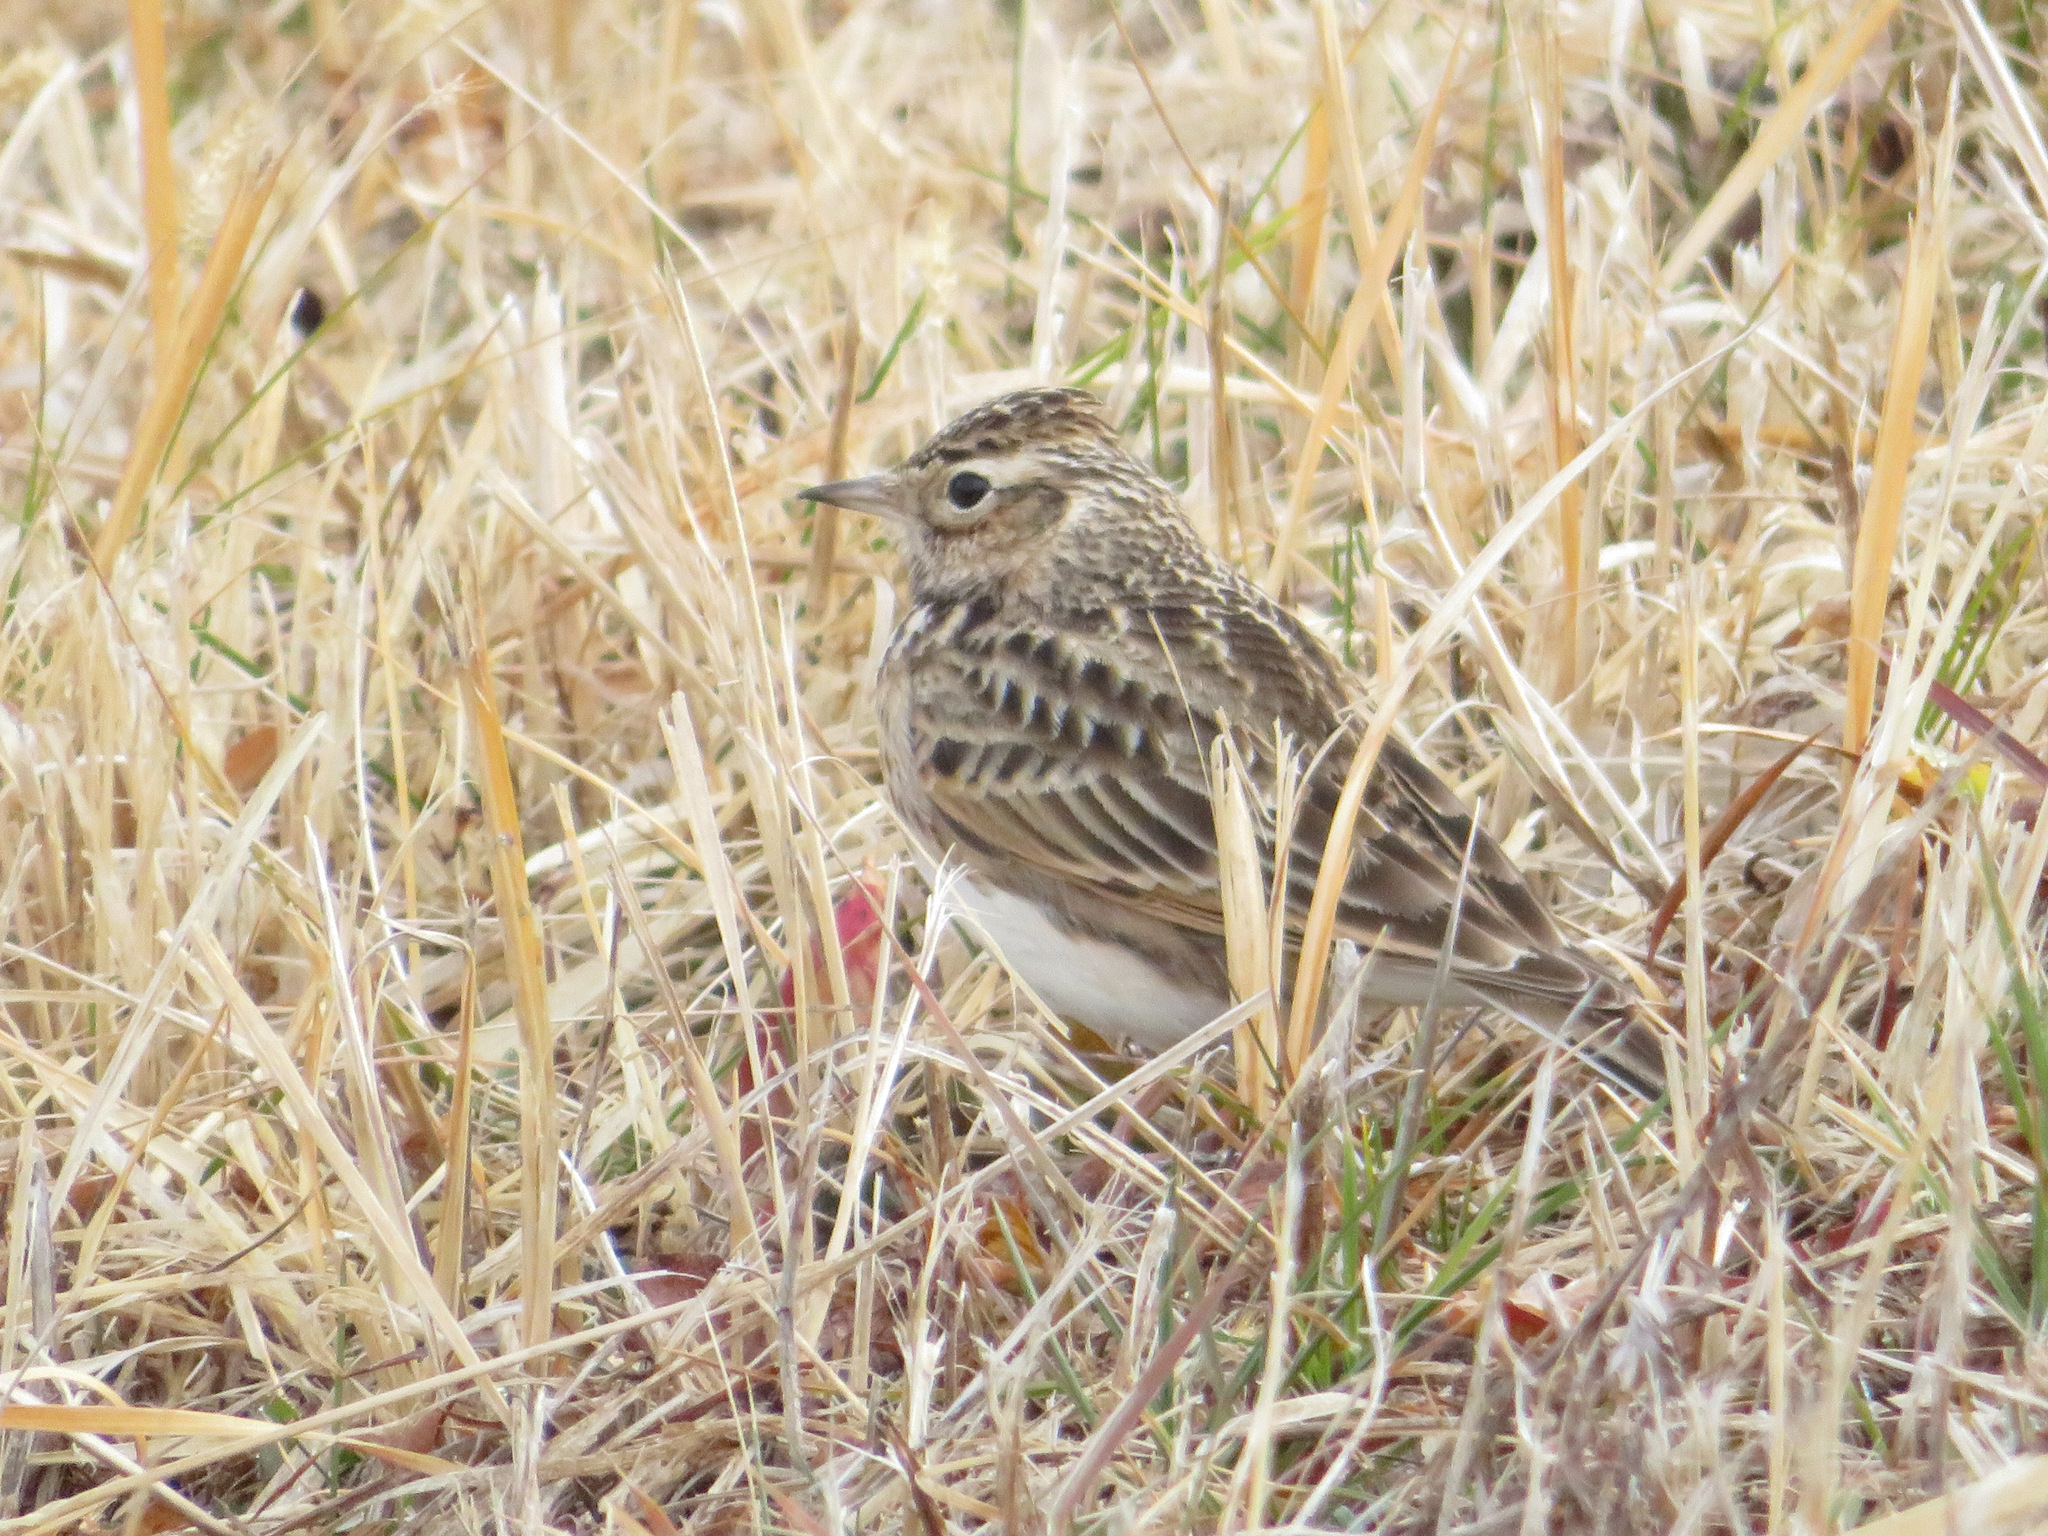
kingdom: Animalia
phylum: Chordata
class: Aves
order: Passeriformes
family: Alaudidae
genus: Alauda
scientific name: Alauda arvensis
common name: Eurasian skylark
